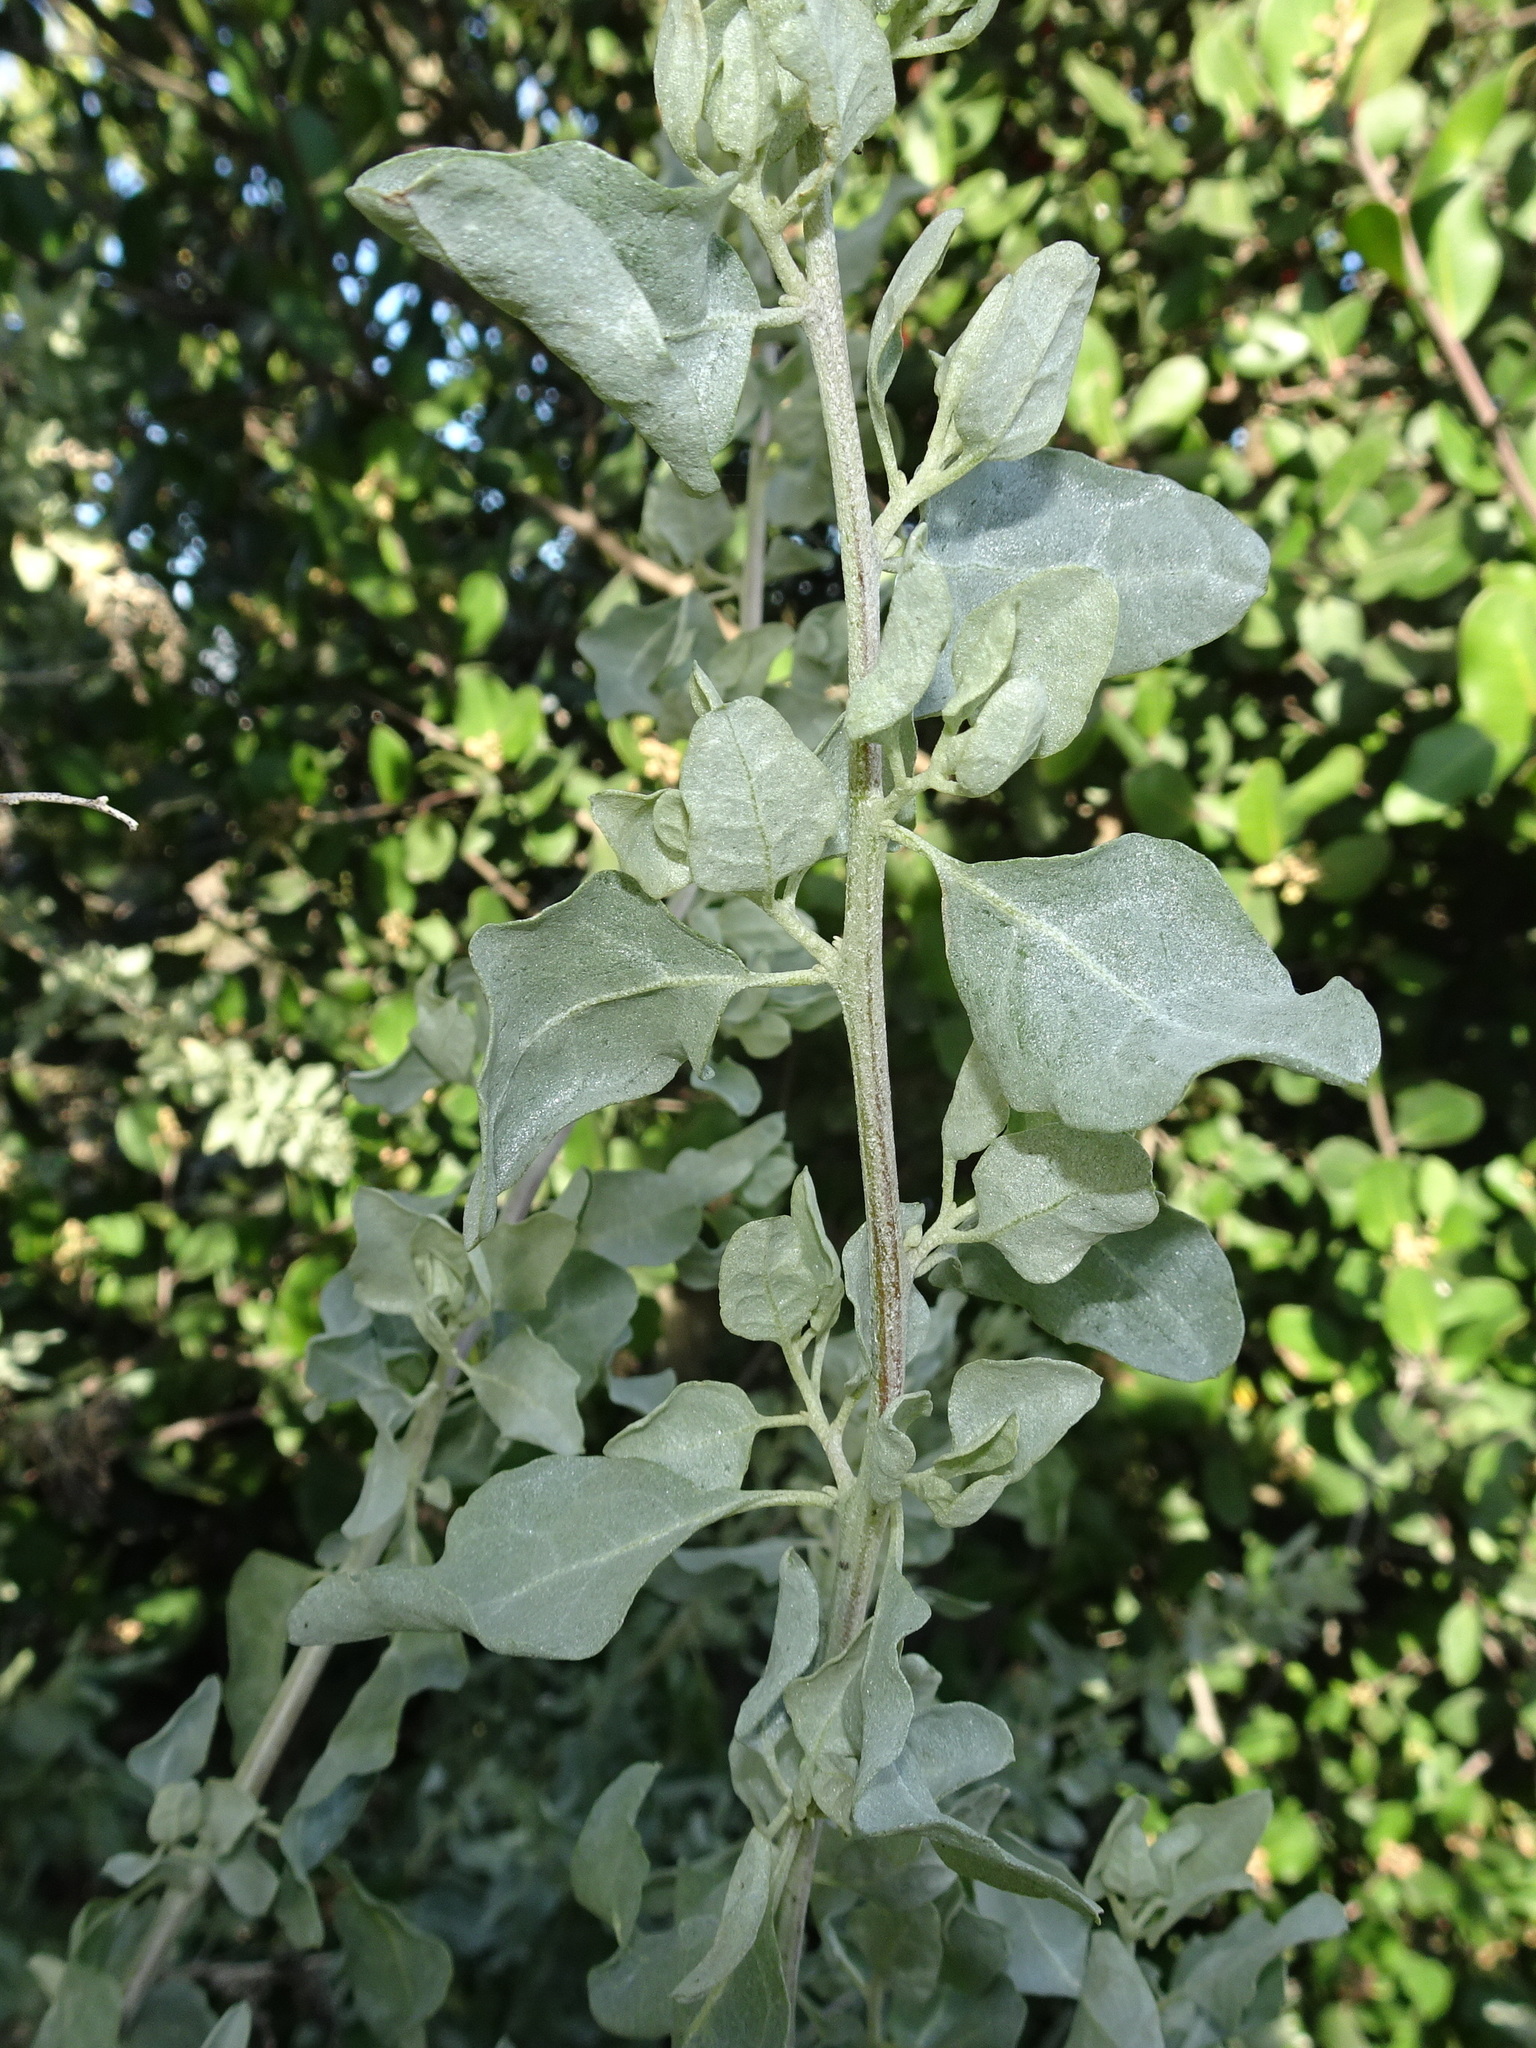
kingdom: Plantae
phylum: Tracheophyta
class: Magnoliopsida
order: Caryophyllales
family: Amaranthaceae
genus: Atriplex
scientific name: Atriplex lentiformis
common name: Big saltbush
